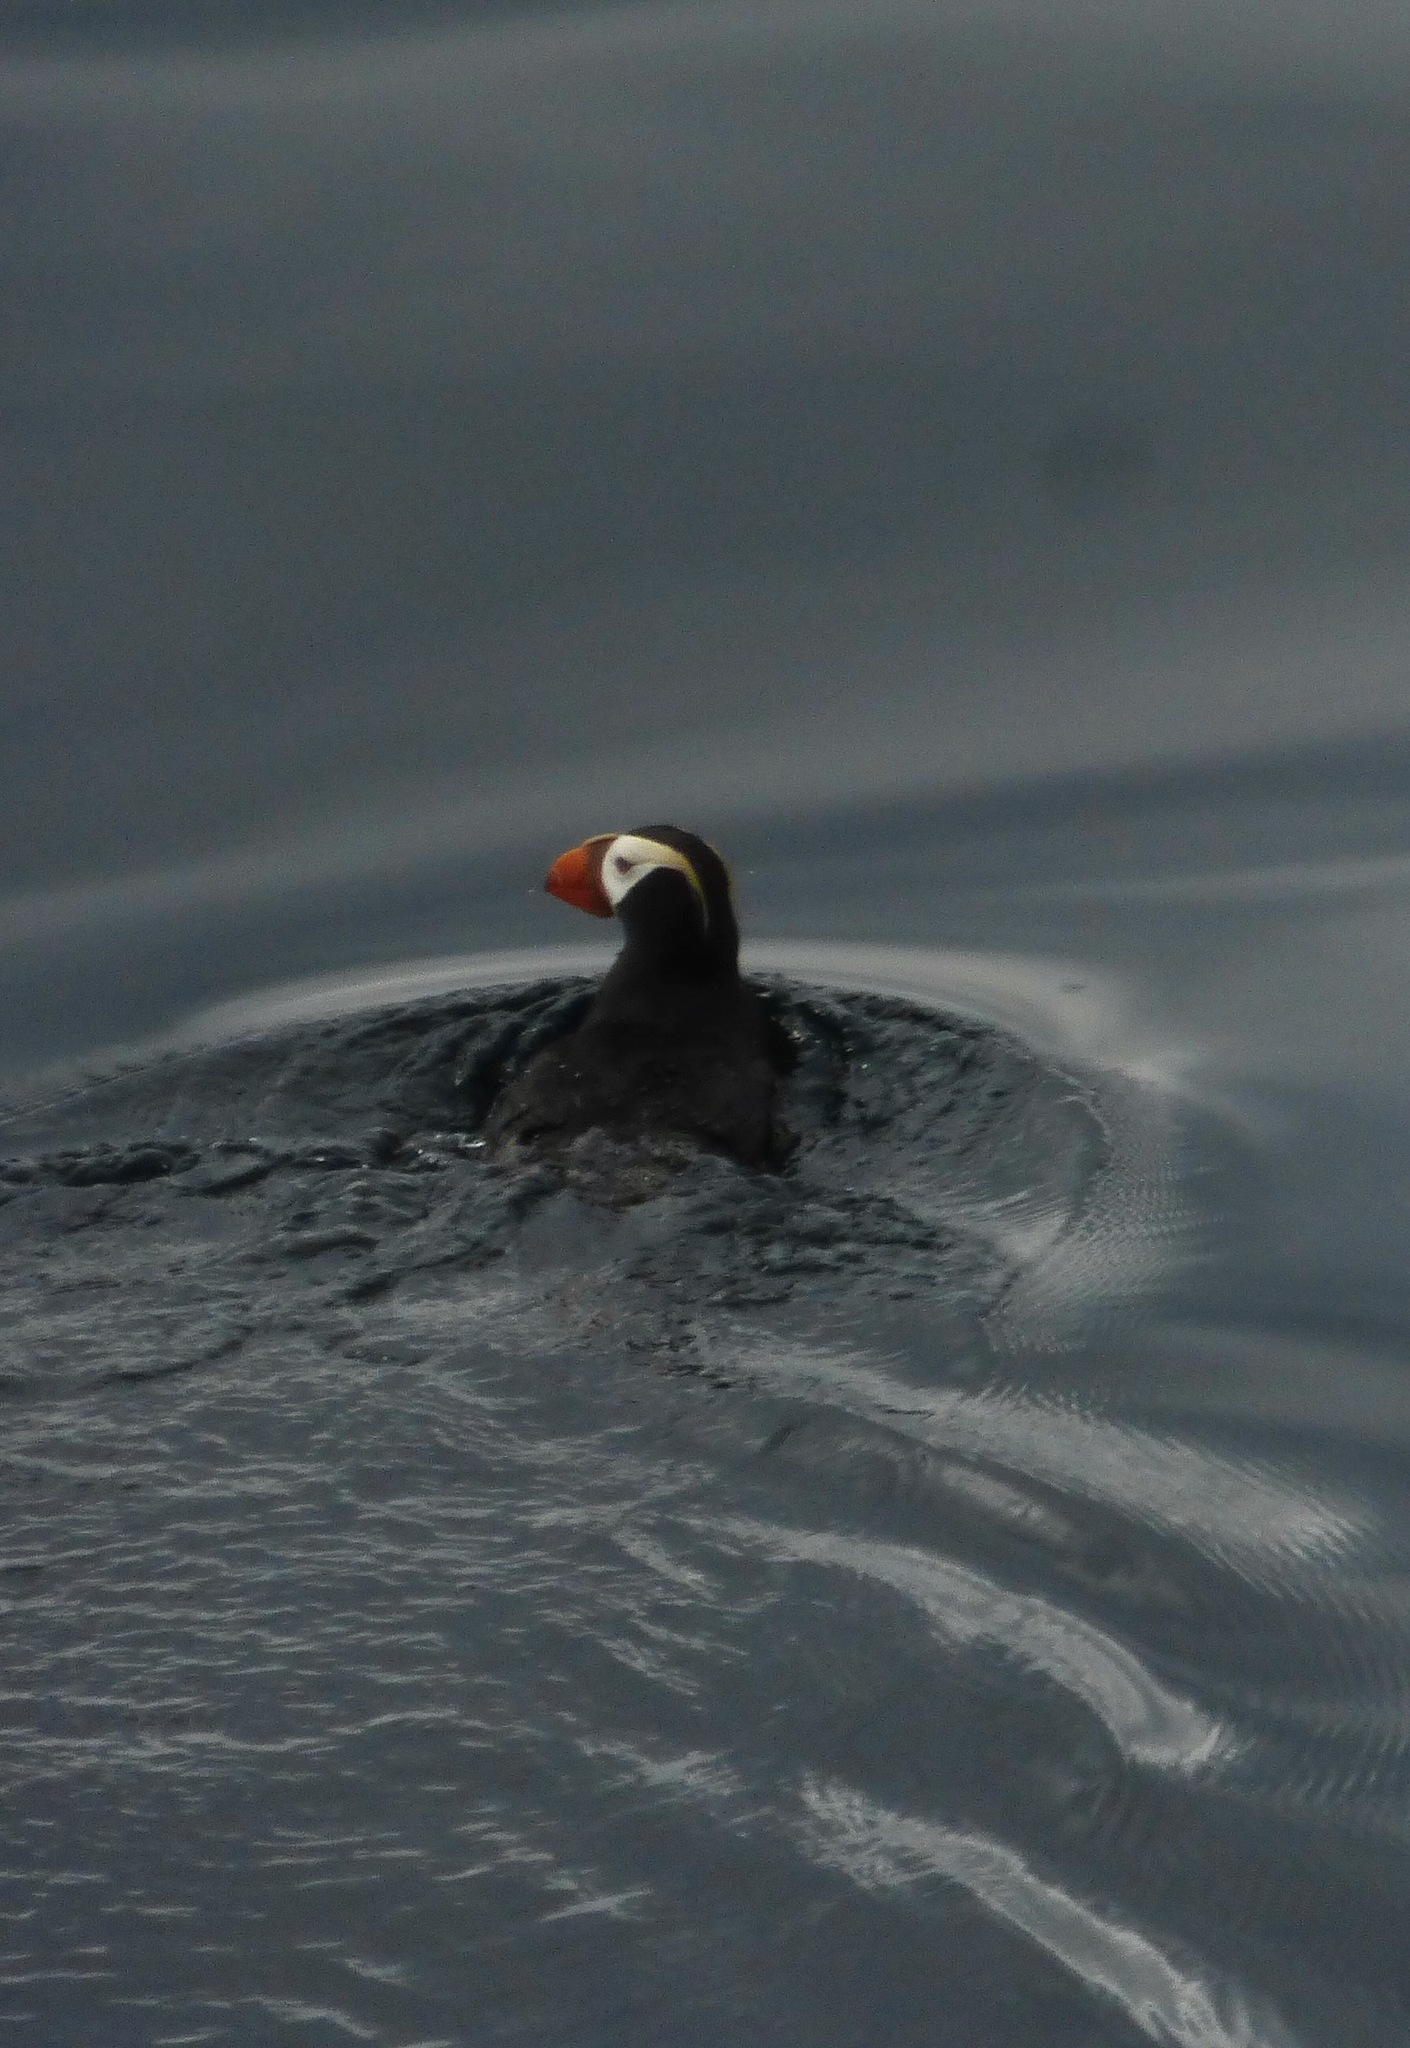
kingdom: Animalia
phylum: Chordata
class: Aves
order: Charadriiformes
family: Alcidae
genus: Fratercula
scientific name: Fratercula cirrhata
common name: Tufted puffin
